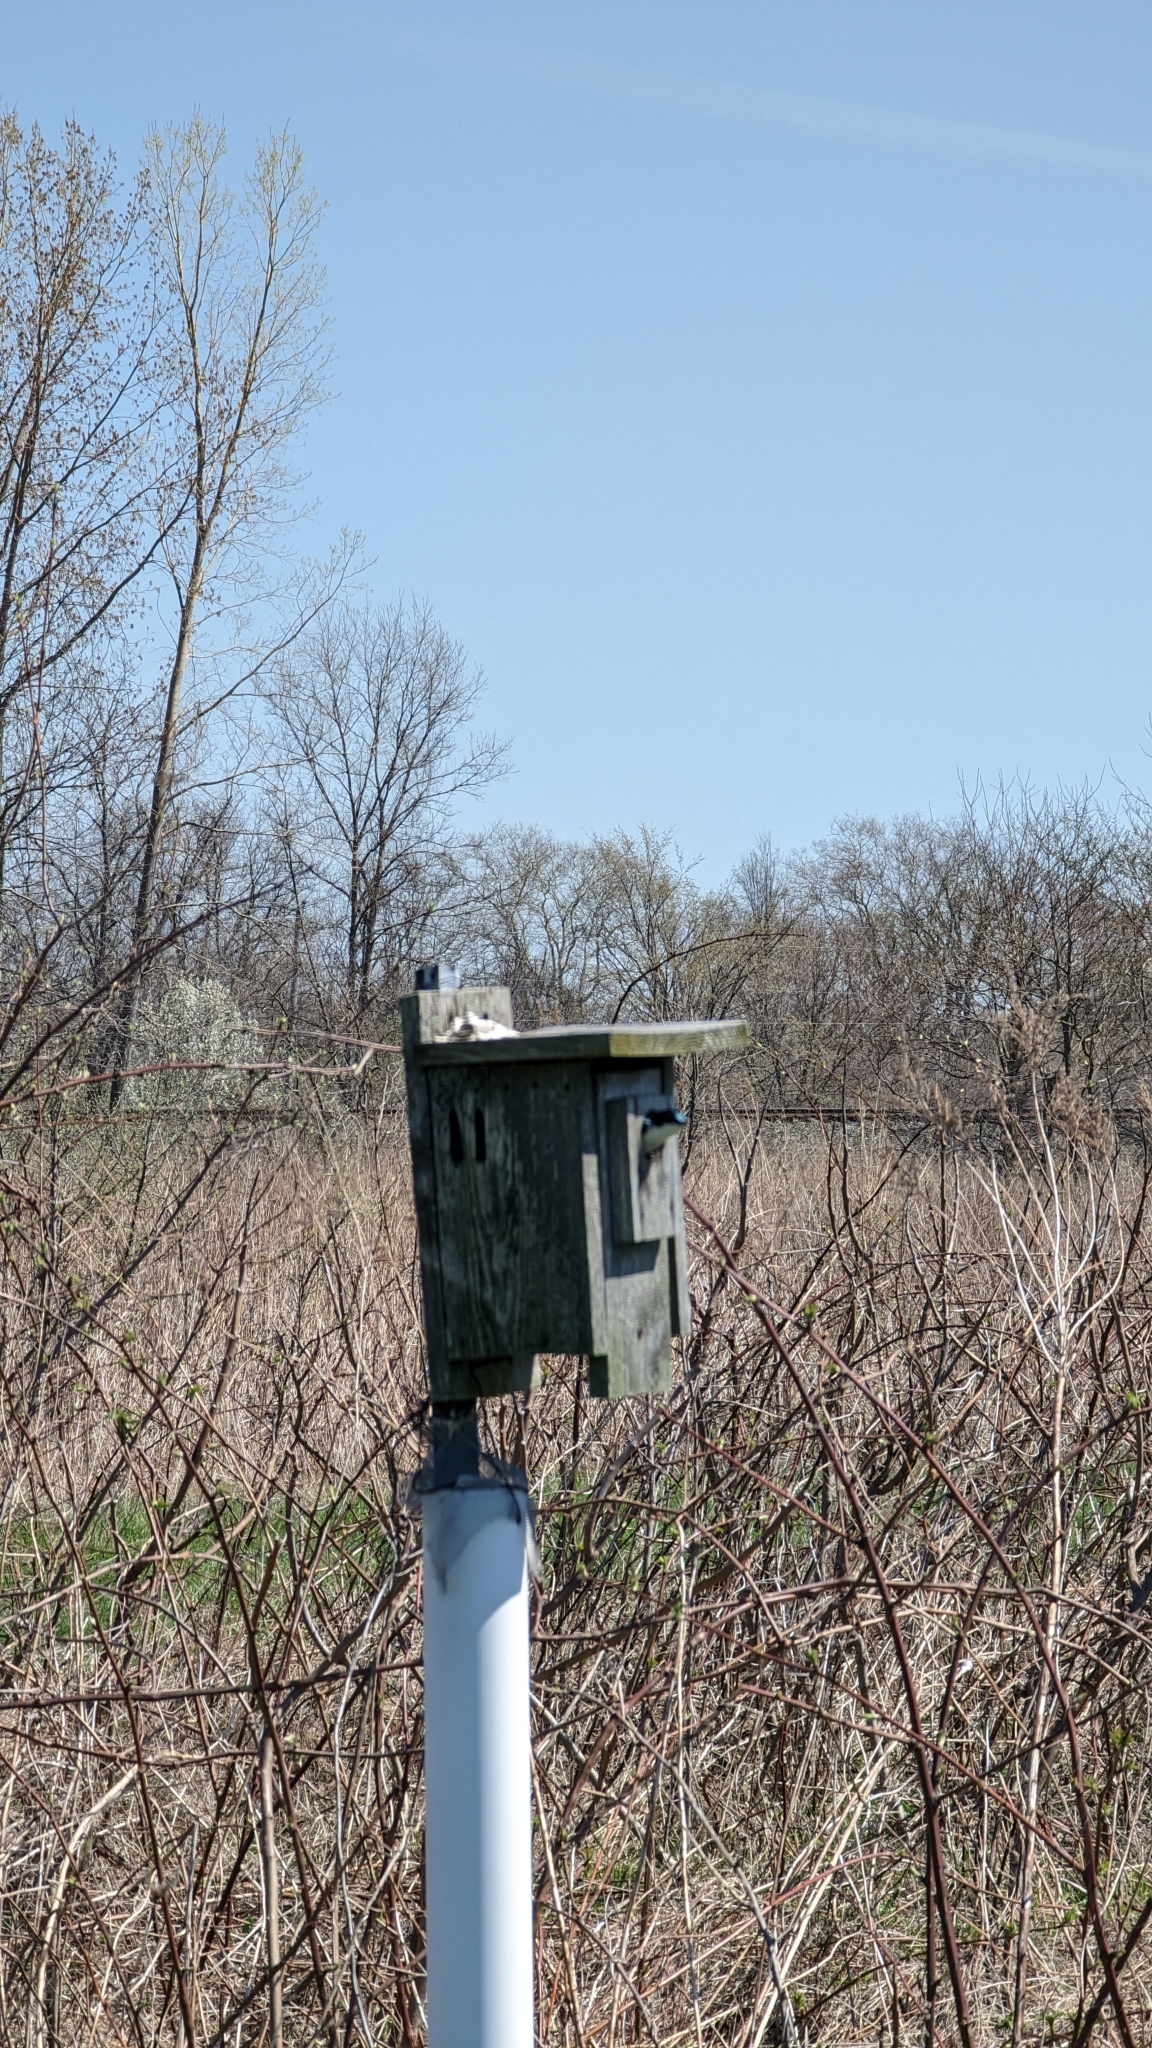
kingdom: Animalia
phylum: Chordata
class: Aves
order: Passeriformes
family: Hirundinidae
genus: Tachycineta
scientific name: Tachycineta bicolor
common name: Tree swallow
